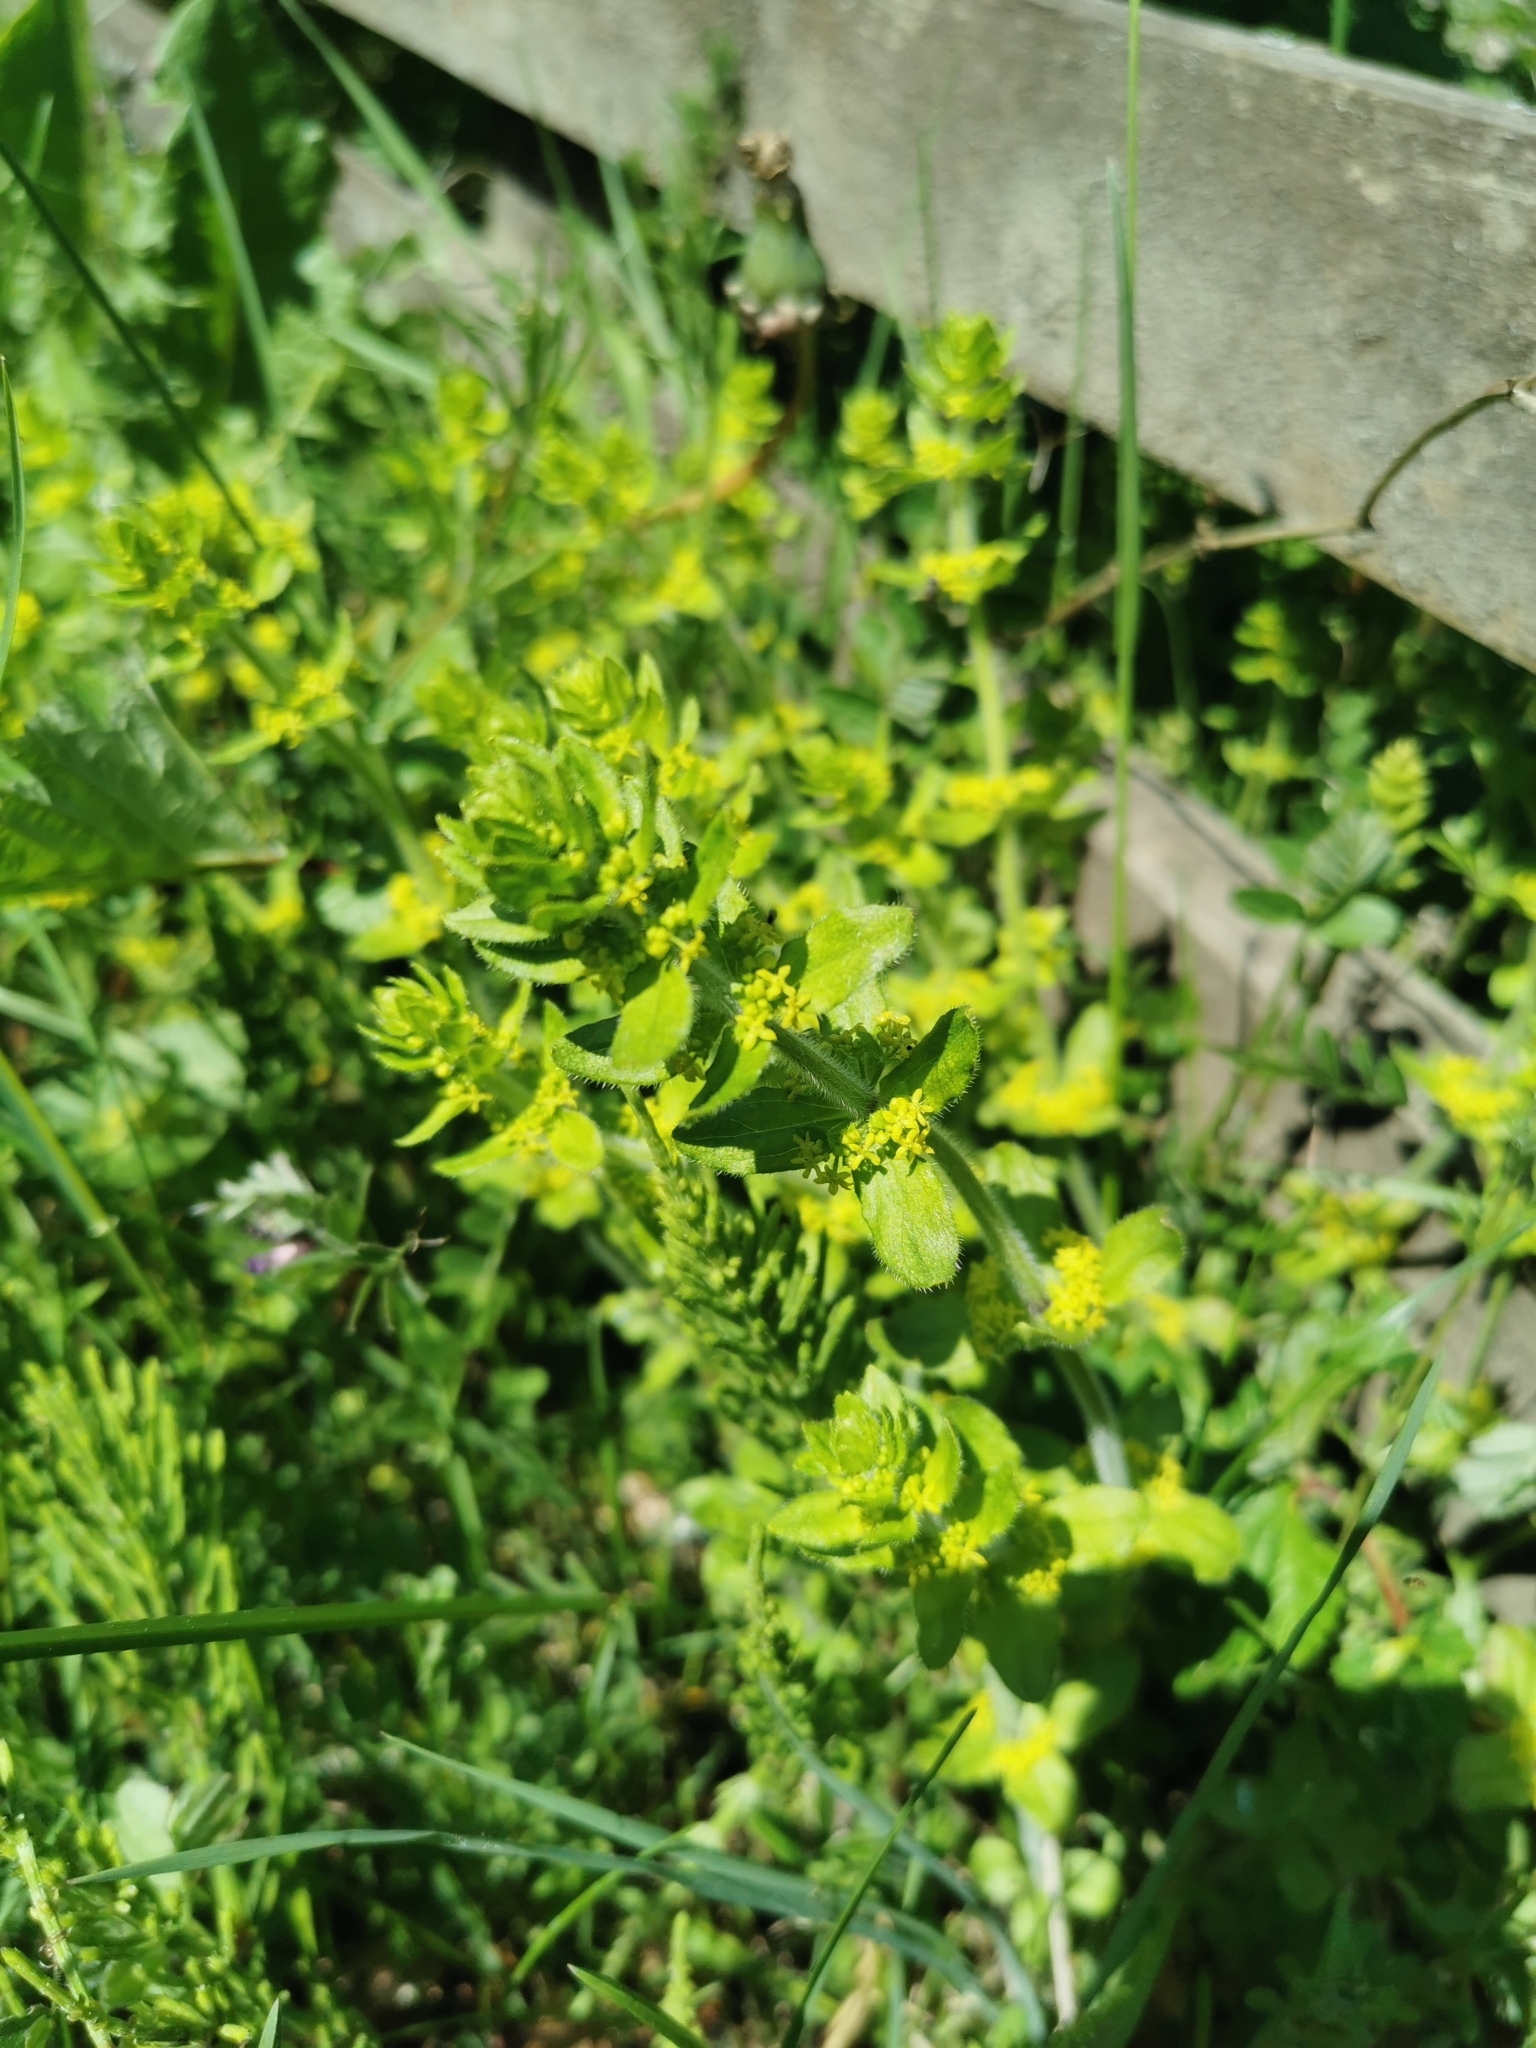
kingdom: Plantae
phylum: Tracheophyta
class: Magnoliopsida
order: Gentianales
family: Rubiaceae
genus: Cruciata
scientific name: Cruciata laevipes
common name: Crosswort
